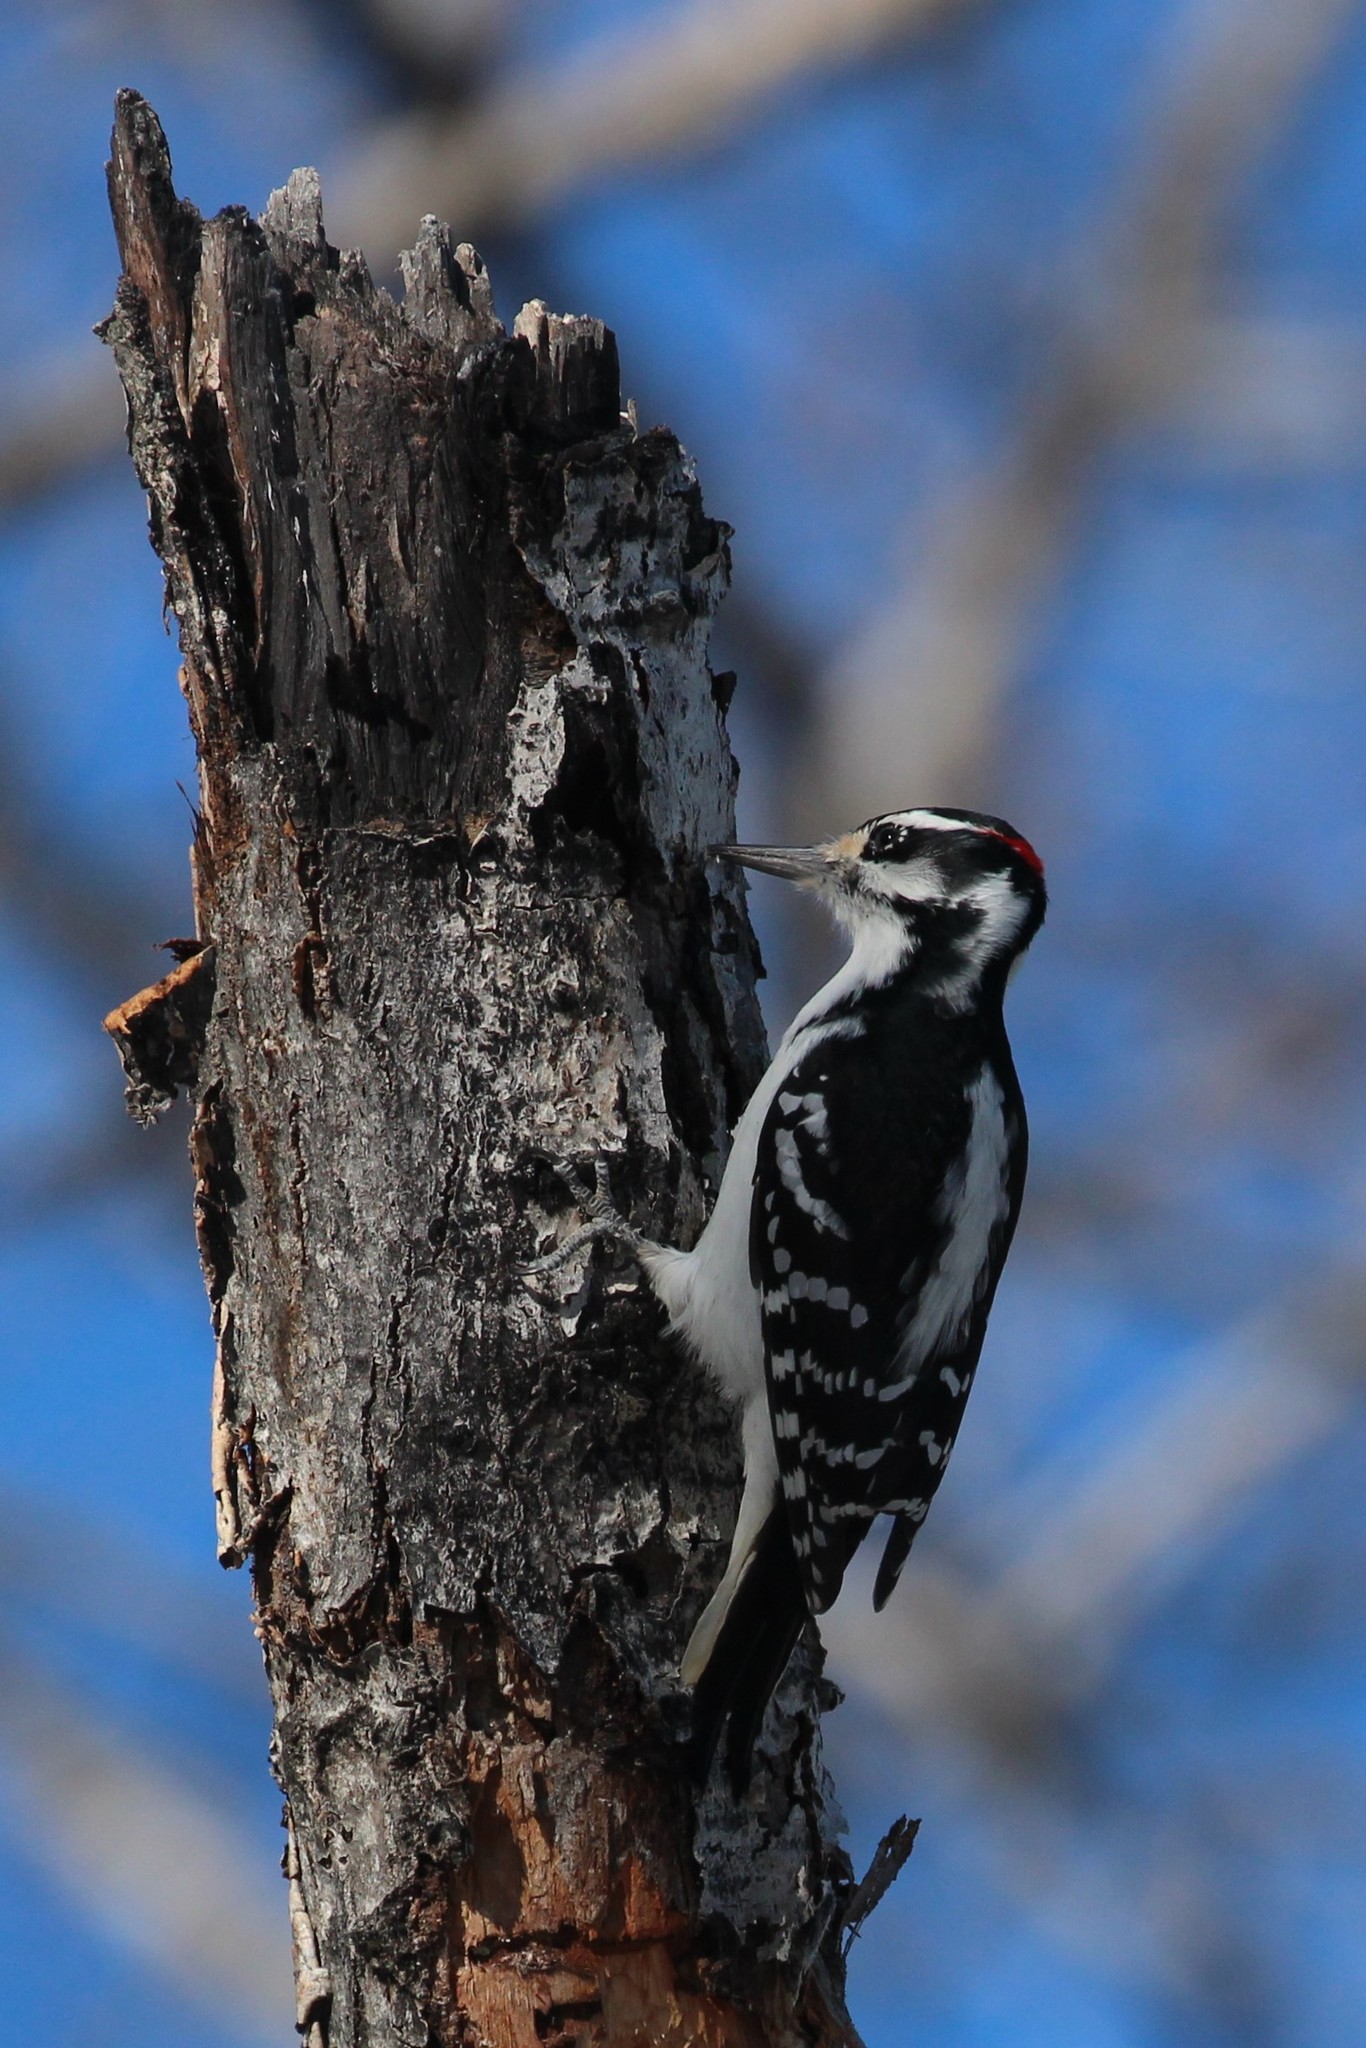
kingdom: Animalia
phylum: Chordata
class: Aves
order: Piciformes
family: Picidae
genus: Leuconotopicus
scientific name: Leuconotopicus villosus
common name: Hairy woodpecker
